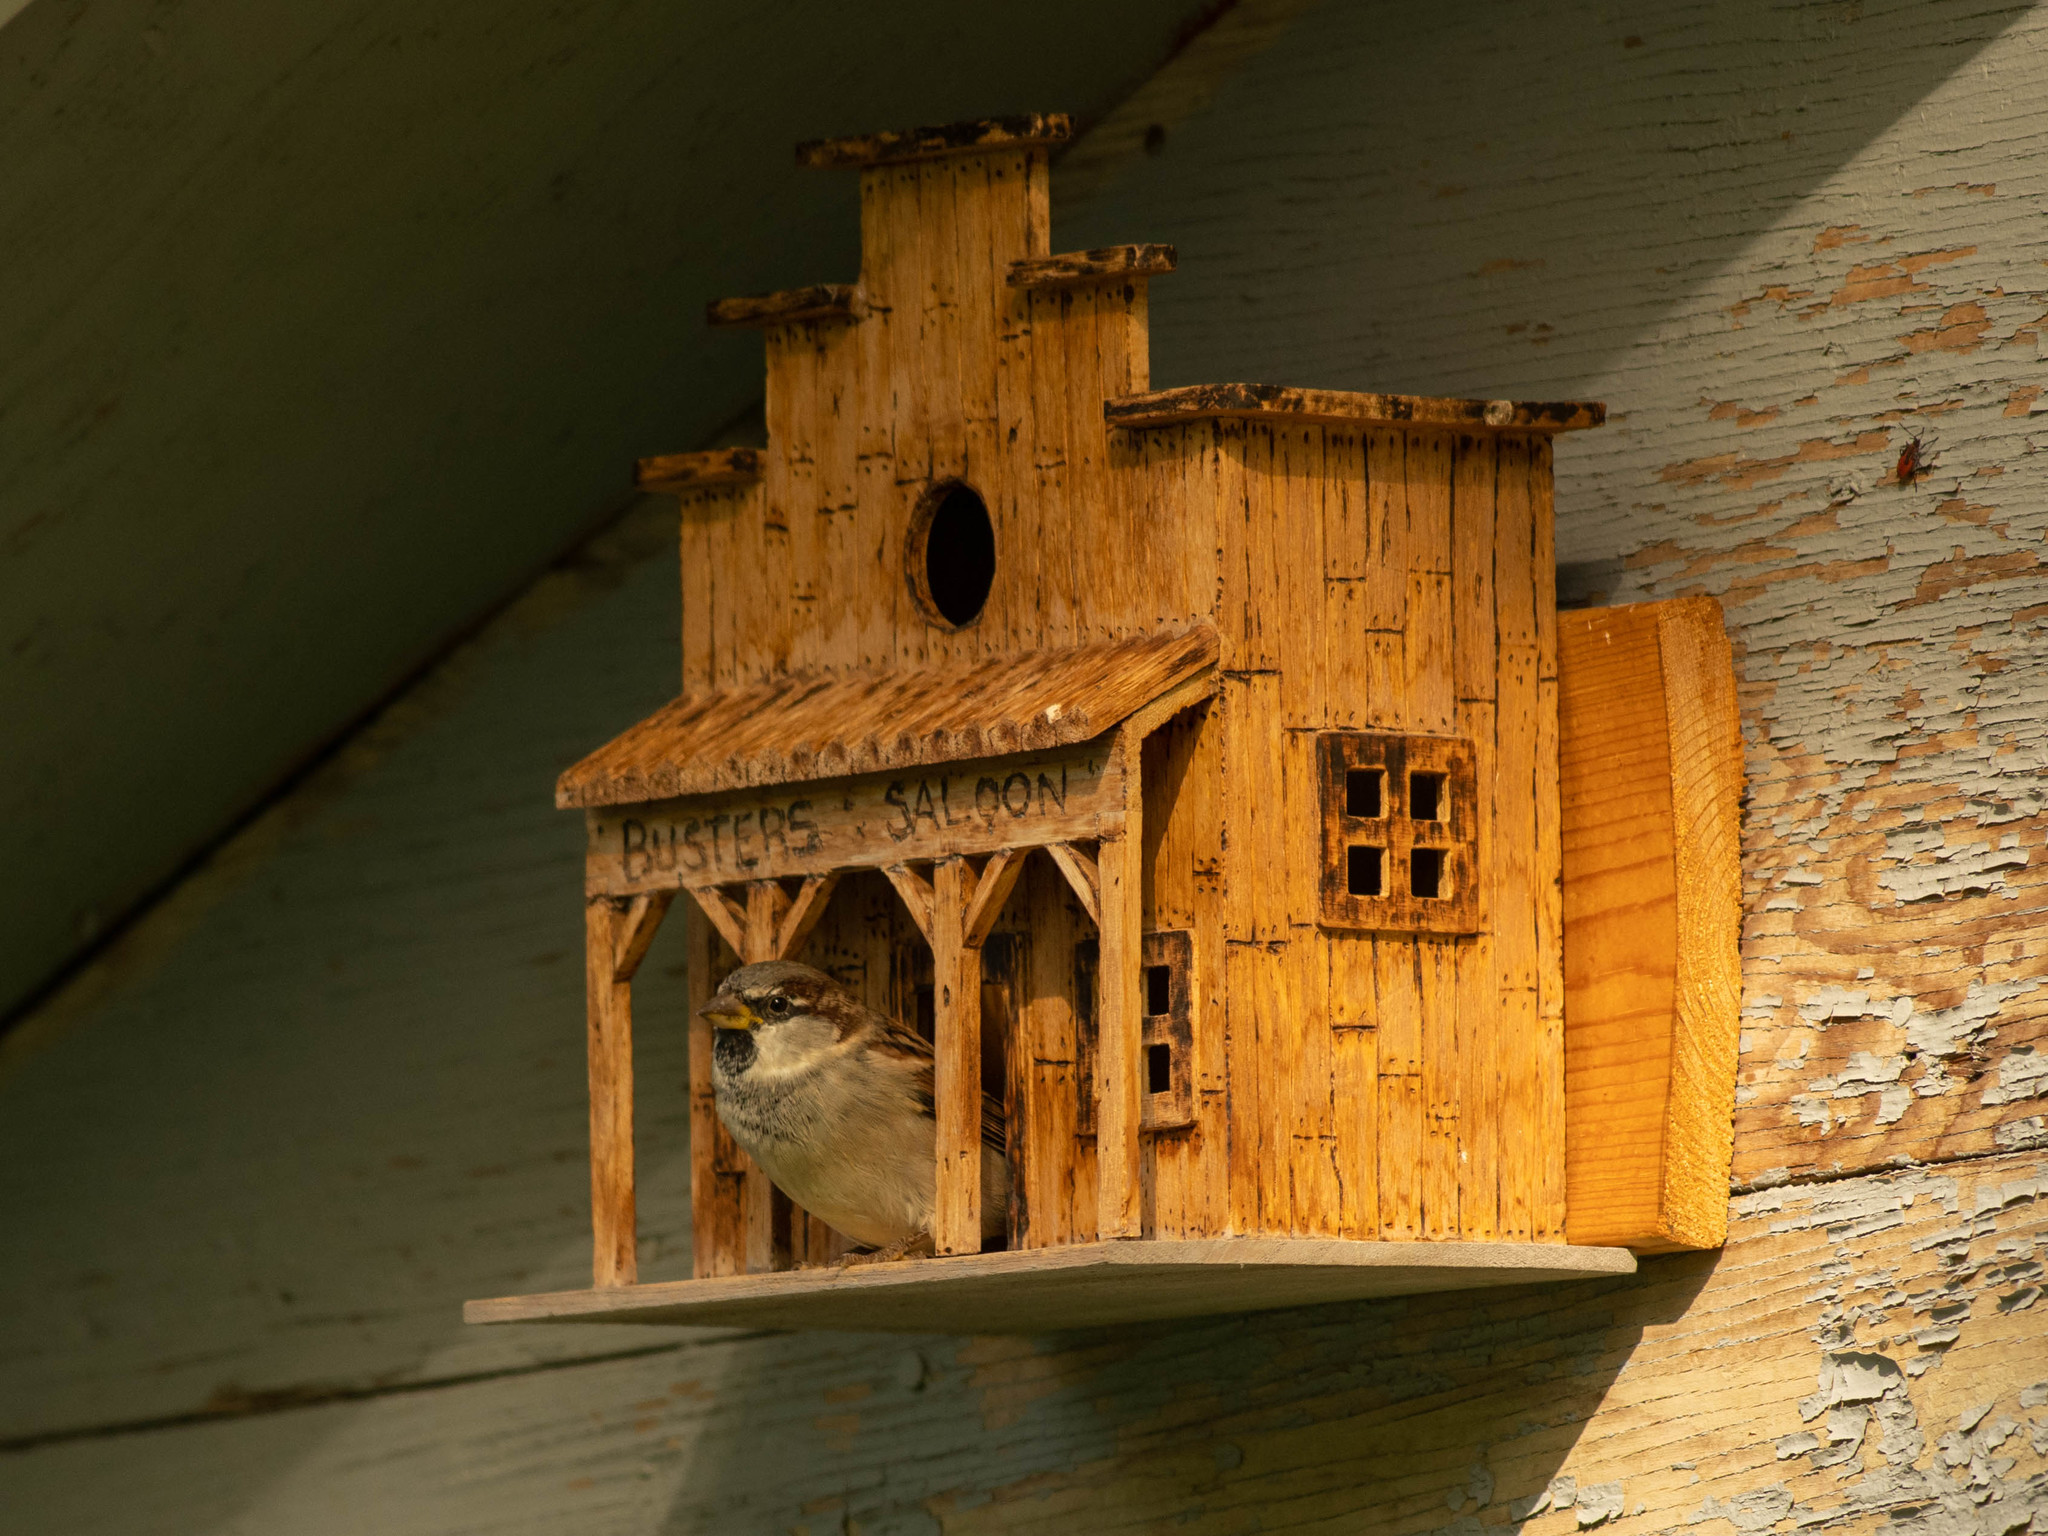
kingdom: Animalia
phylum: Chordata
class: Aves
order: Passeriformes
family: Passeridae
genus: Passer
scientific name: Passer domesticus
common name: House sparrow
